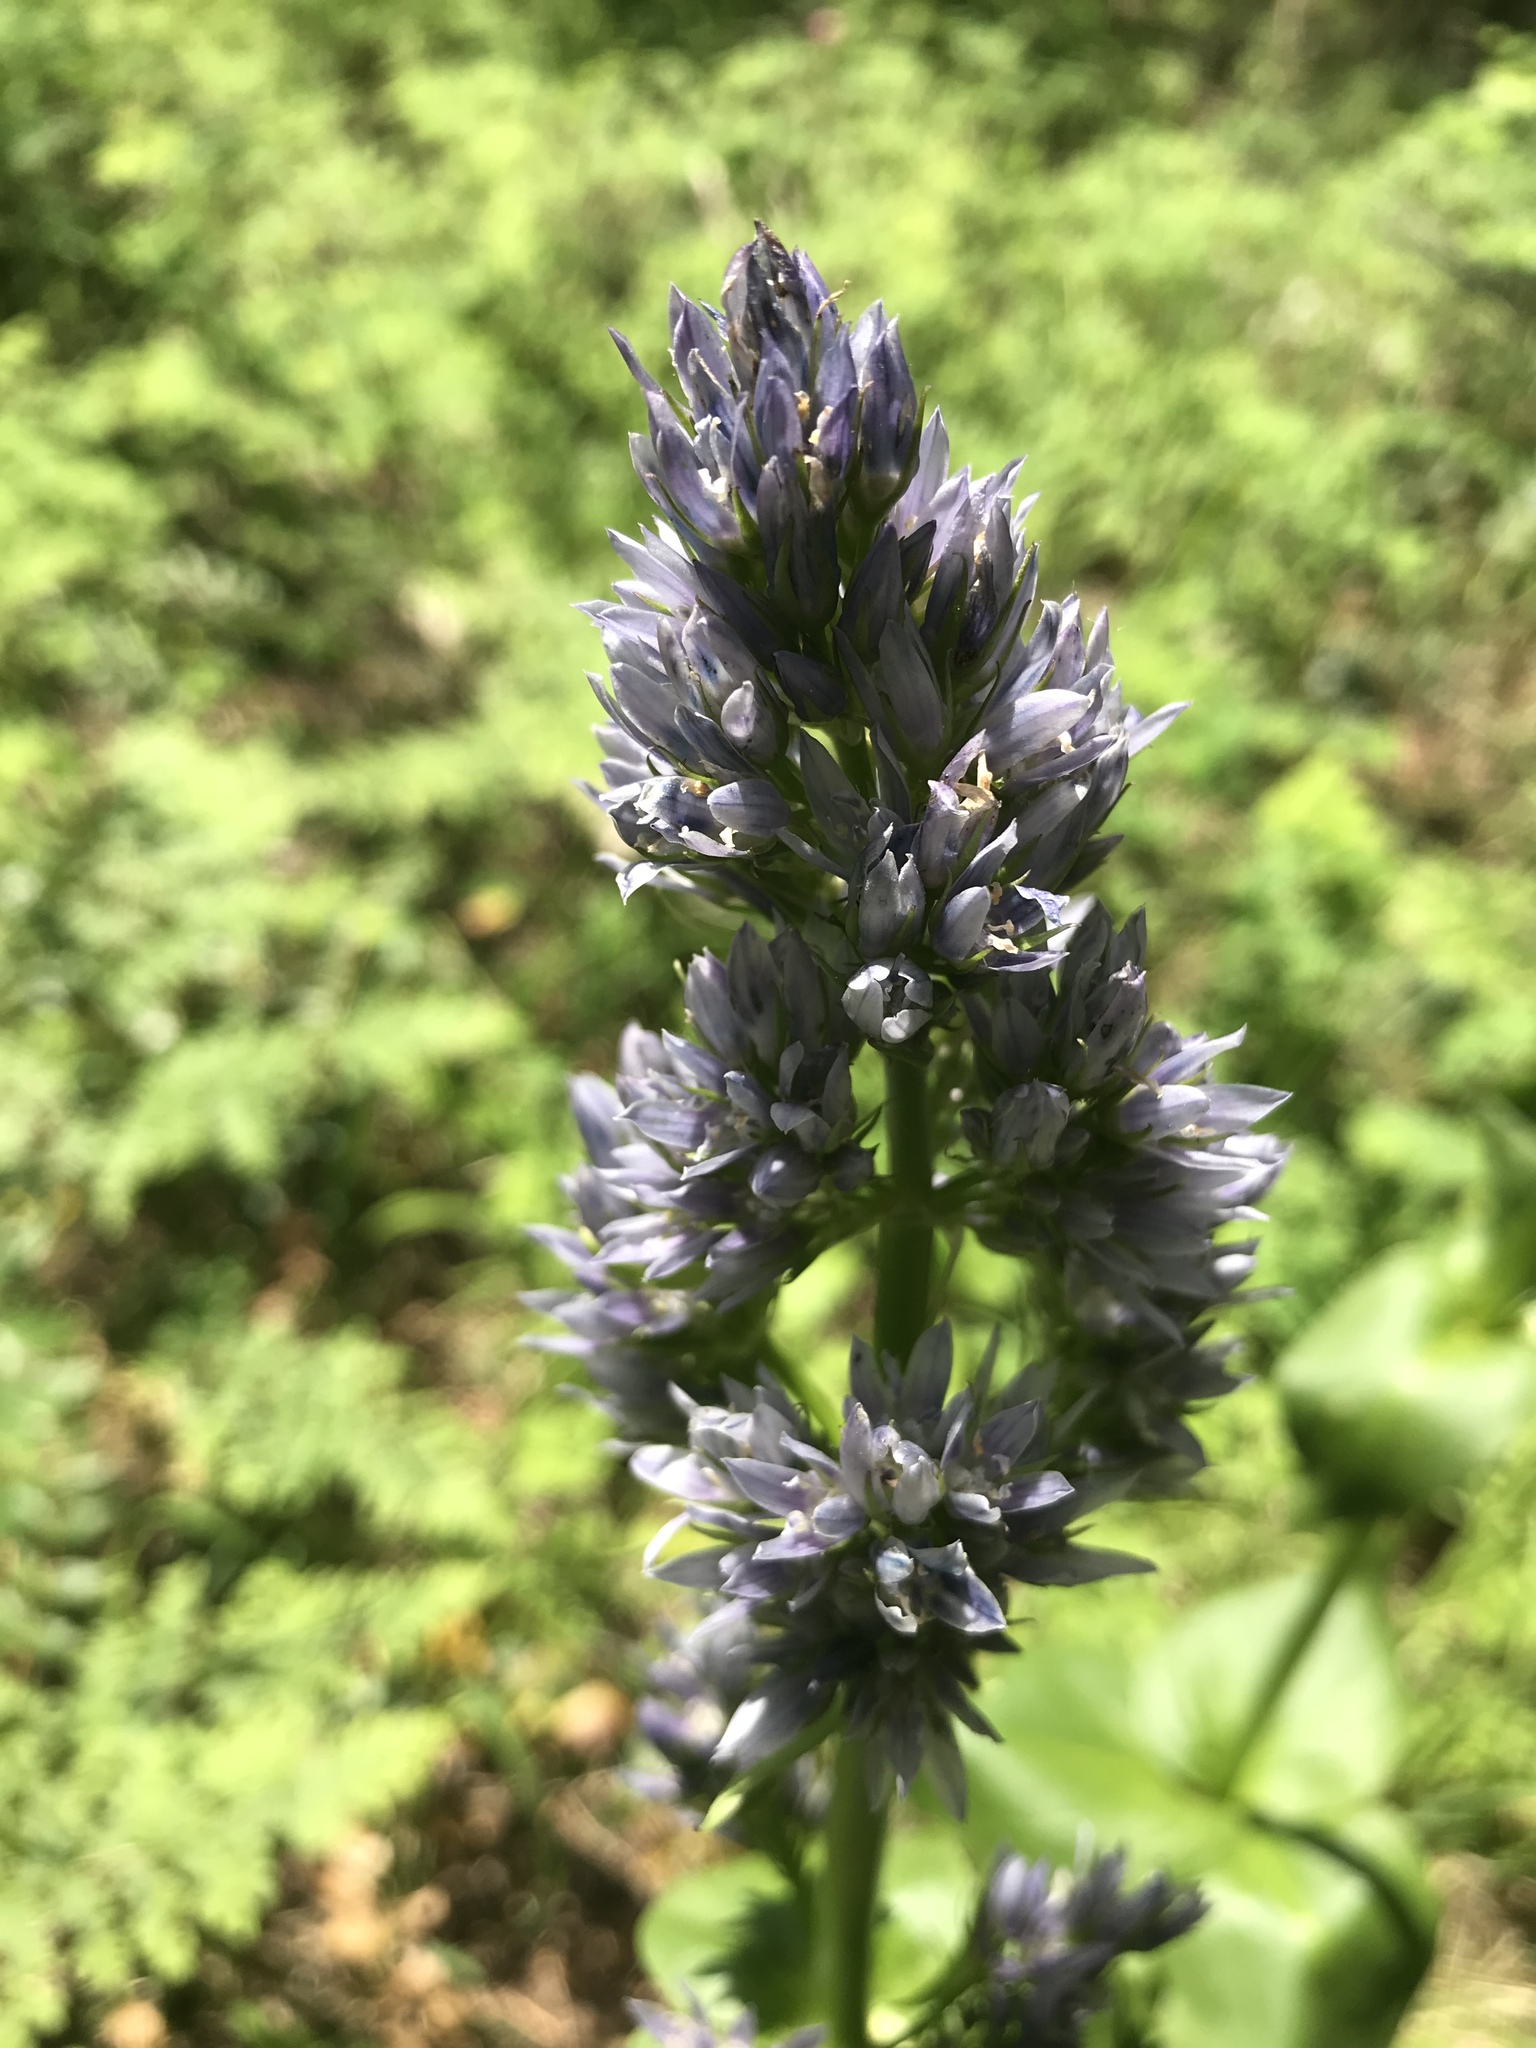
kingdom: Plantae
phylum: Tracheophyta
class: Magnoliopsida
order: Gentianales
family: Gentianaceae
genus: Frasera
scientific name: Frasera fastigiata
